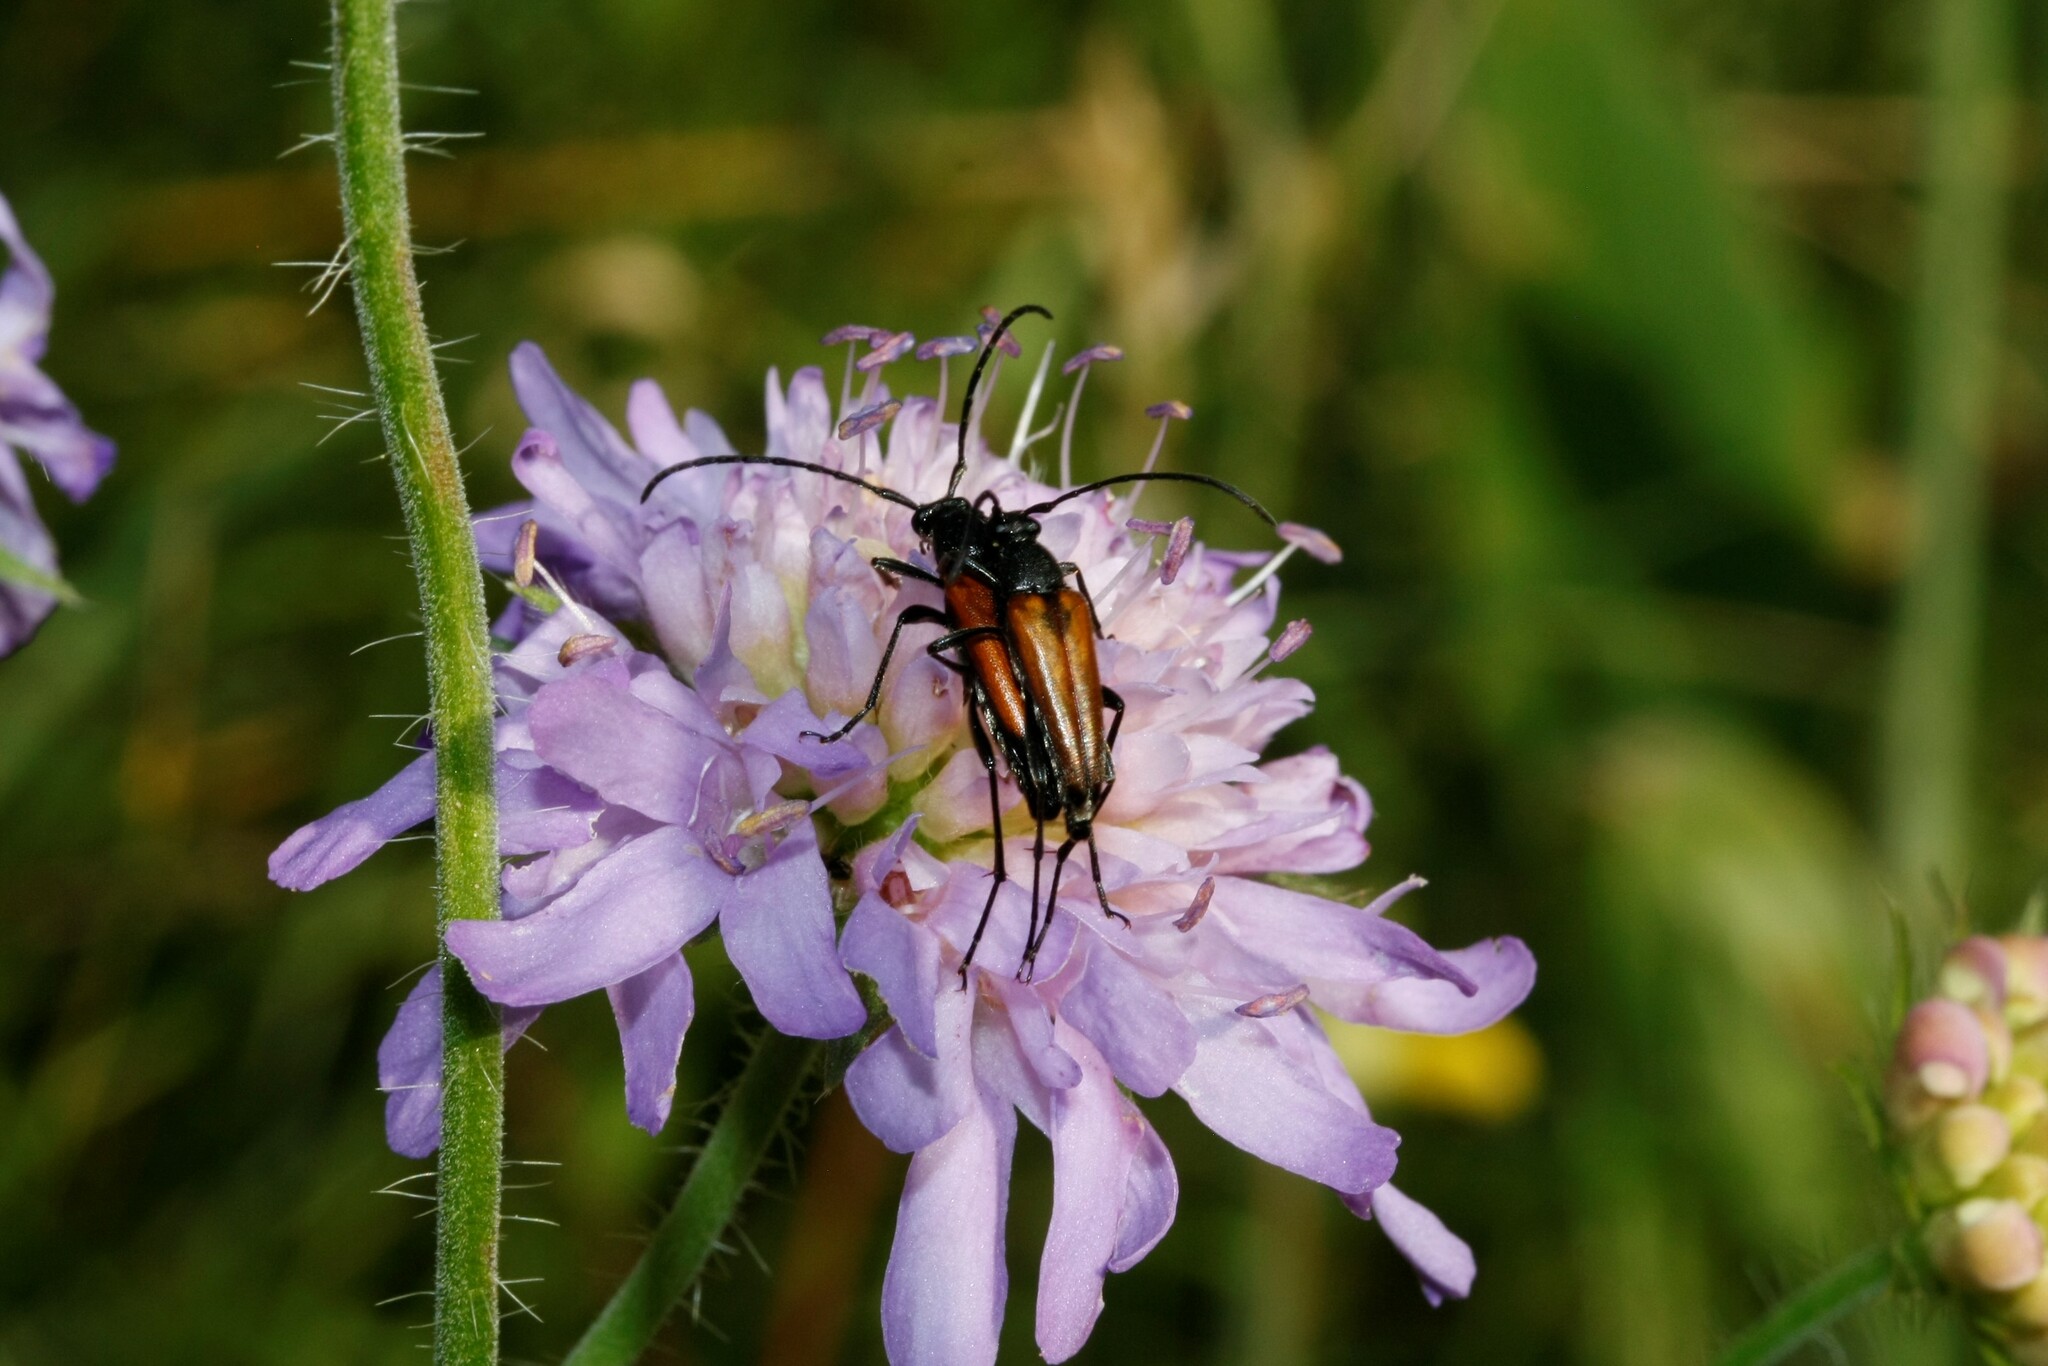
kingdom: Animalia
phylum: Arthropoda
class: Insecta
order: Coleoptera
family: Cerambycidae
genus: Stenurella
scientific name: Stenurella melanura
